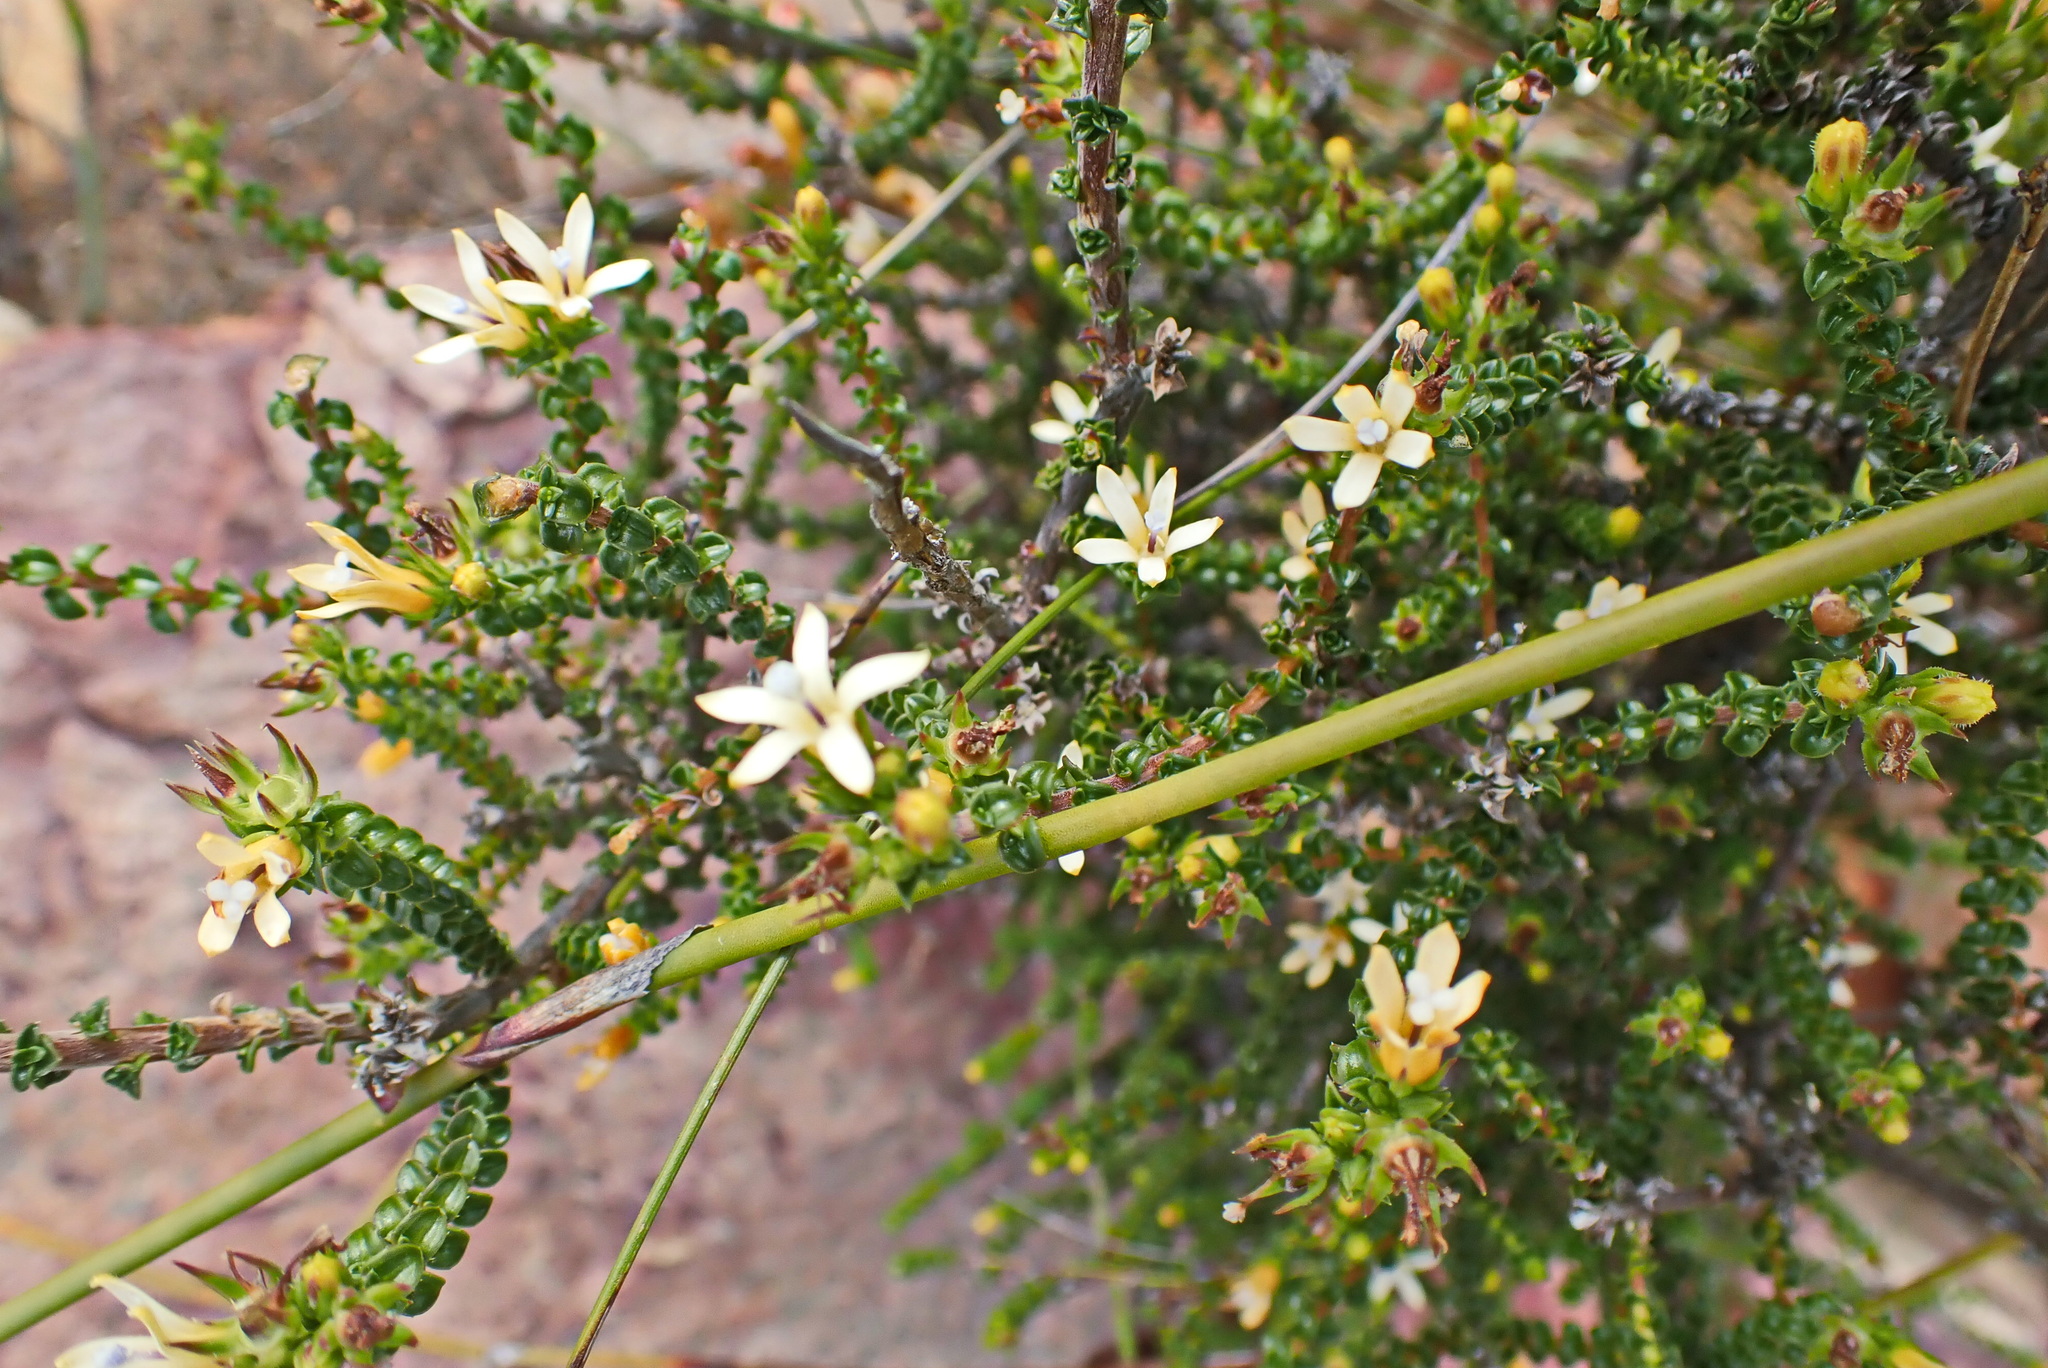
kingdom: Plantae
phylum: Tracheophyta
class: Magnoliopsida
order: Asterales
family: Campanulaceae
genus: Wahlenbergia
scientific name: Wahlenbergia nodosa
